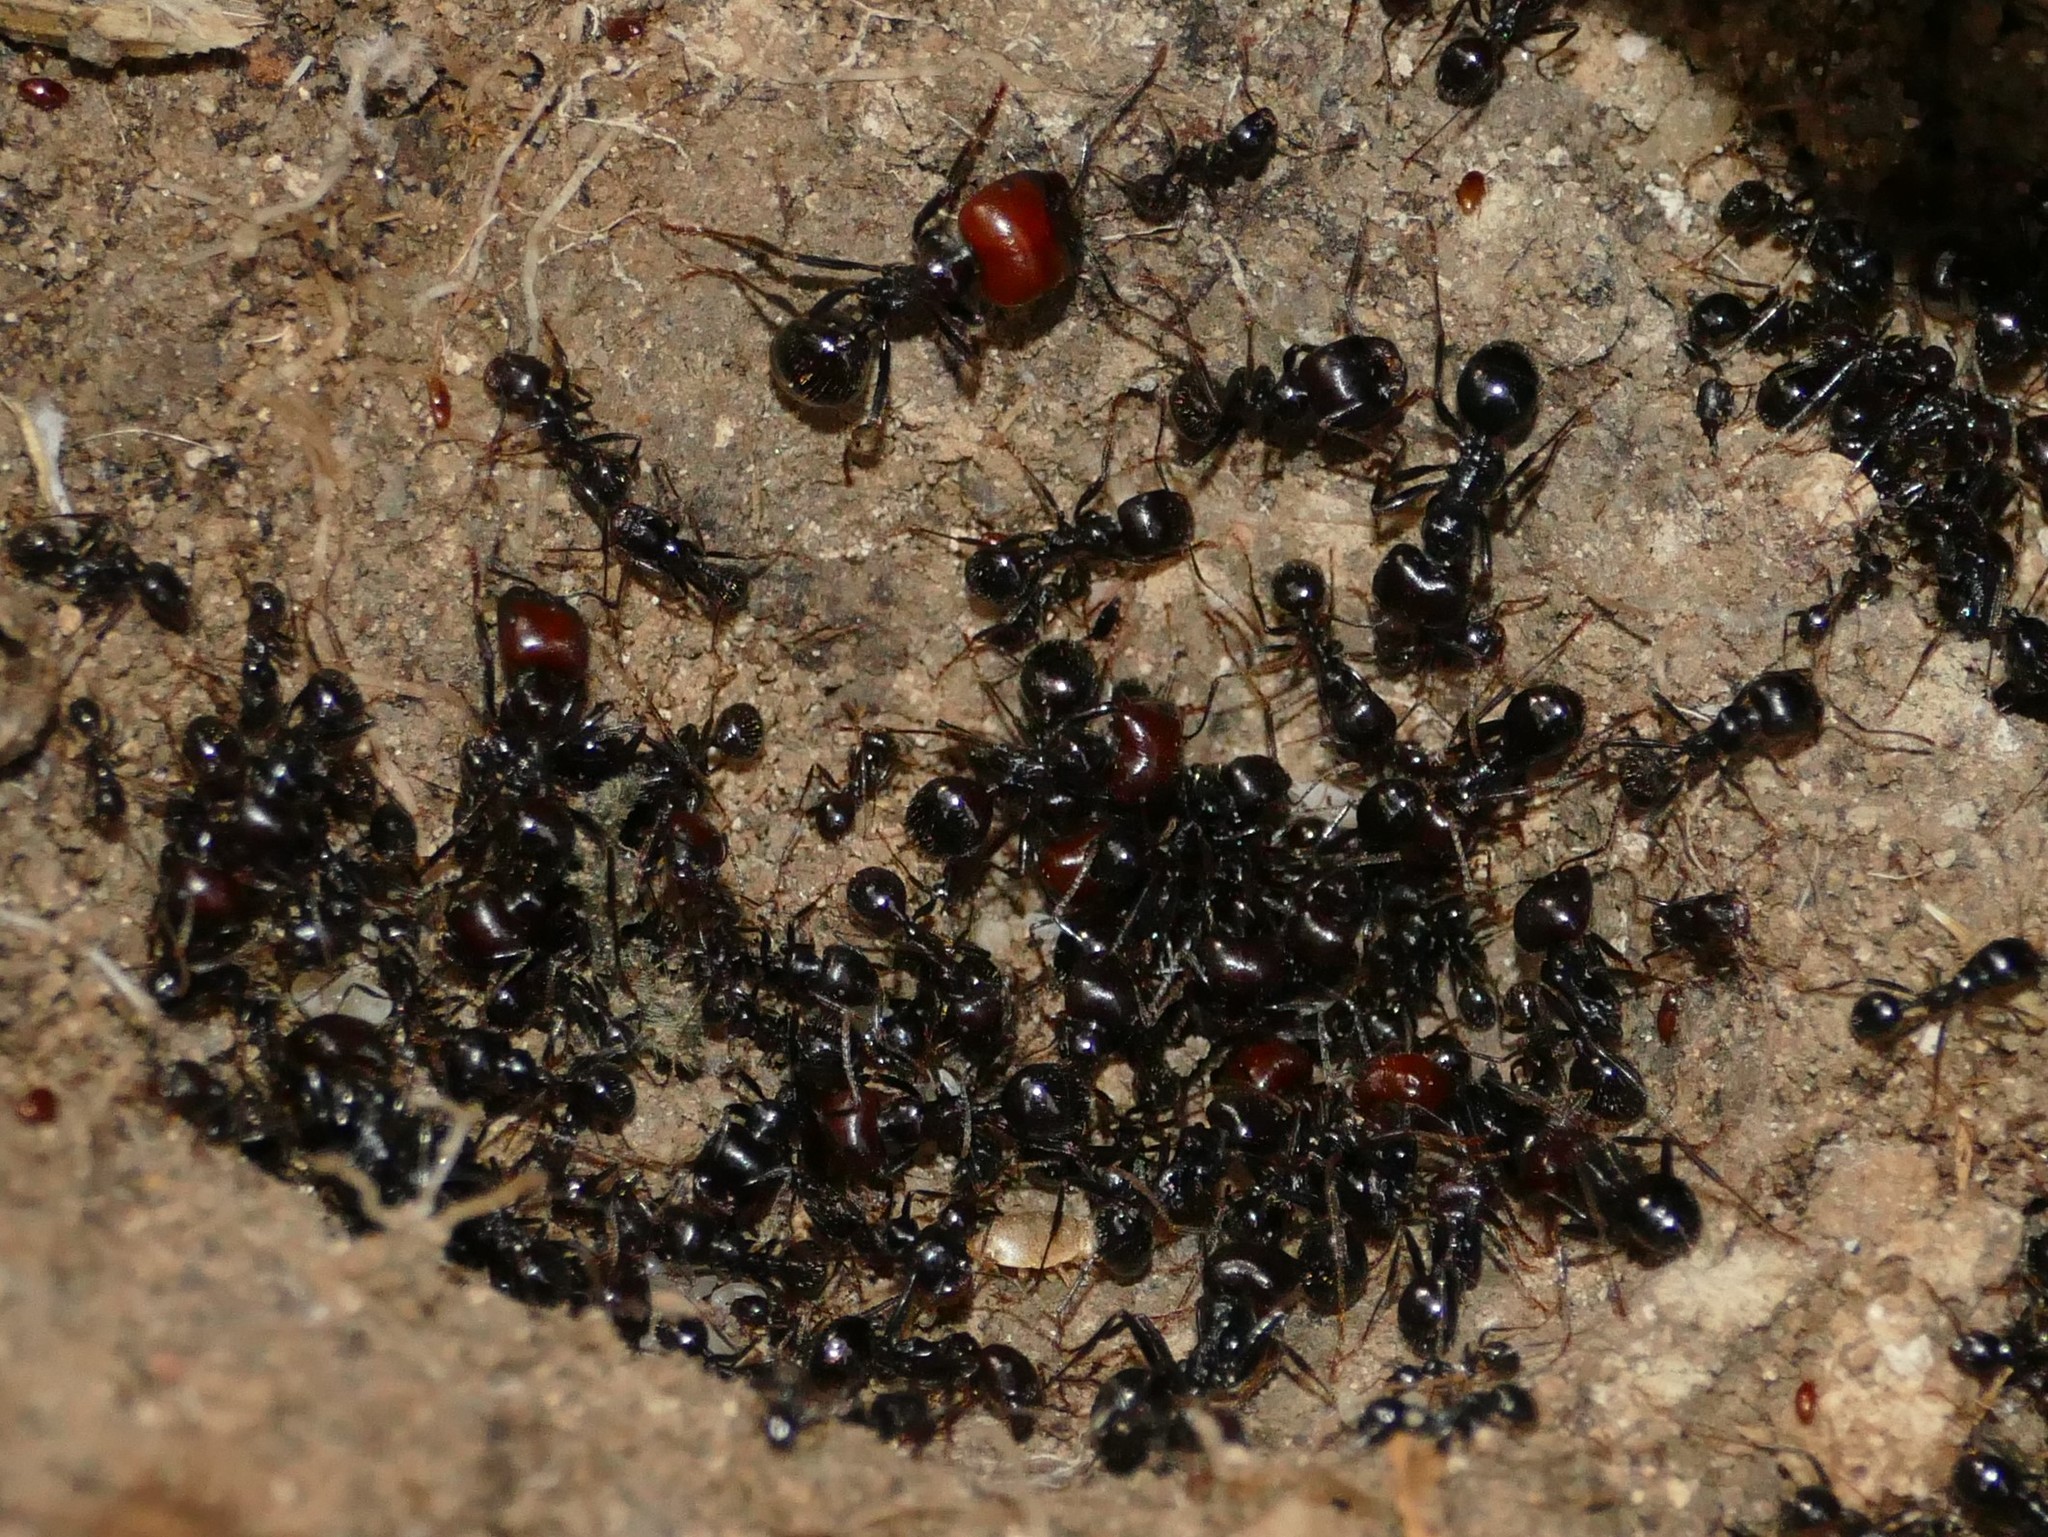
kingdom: Animalia
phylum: Arthropoda
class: Insecta
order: Hymenoptera
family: Formicidae
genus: Messor
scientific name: Messor barbarus
